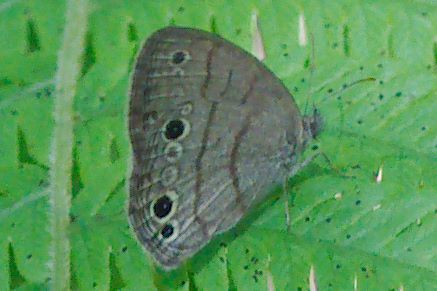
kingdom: Animalia
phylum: Arthropoda
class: Insecta
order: Lepidoptera
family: Nymphalidae
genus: Hermeuptychia
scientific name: Hermeuptychia intricata
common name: Intricate satyr
